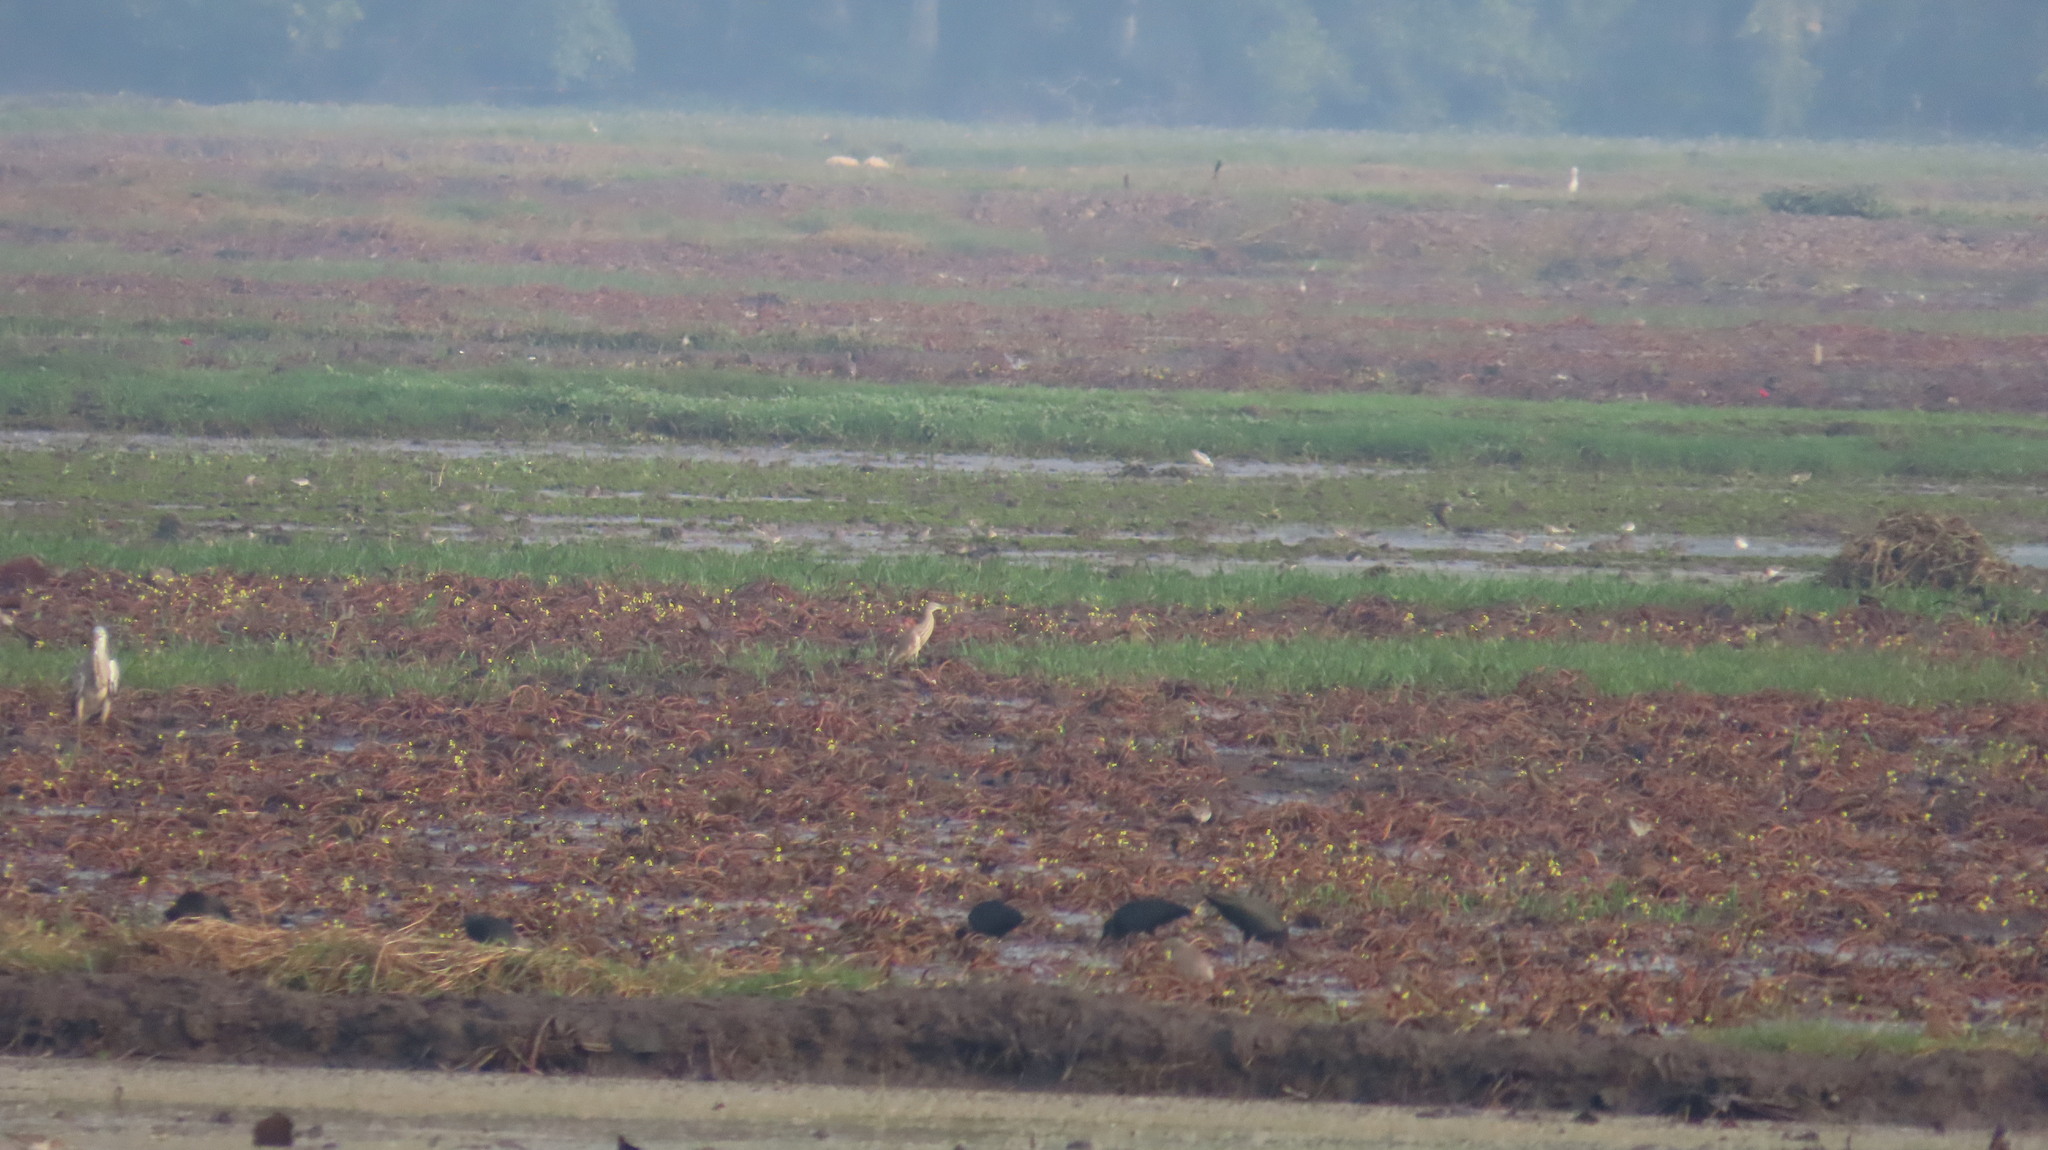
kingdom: Animalia
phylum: Chordata
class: Aves
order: Pelecaniformes
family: Threskiornithidae
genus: Plegadis
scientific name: Plegadis falcinellus
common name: Glossy ibis
